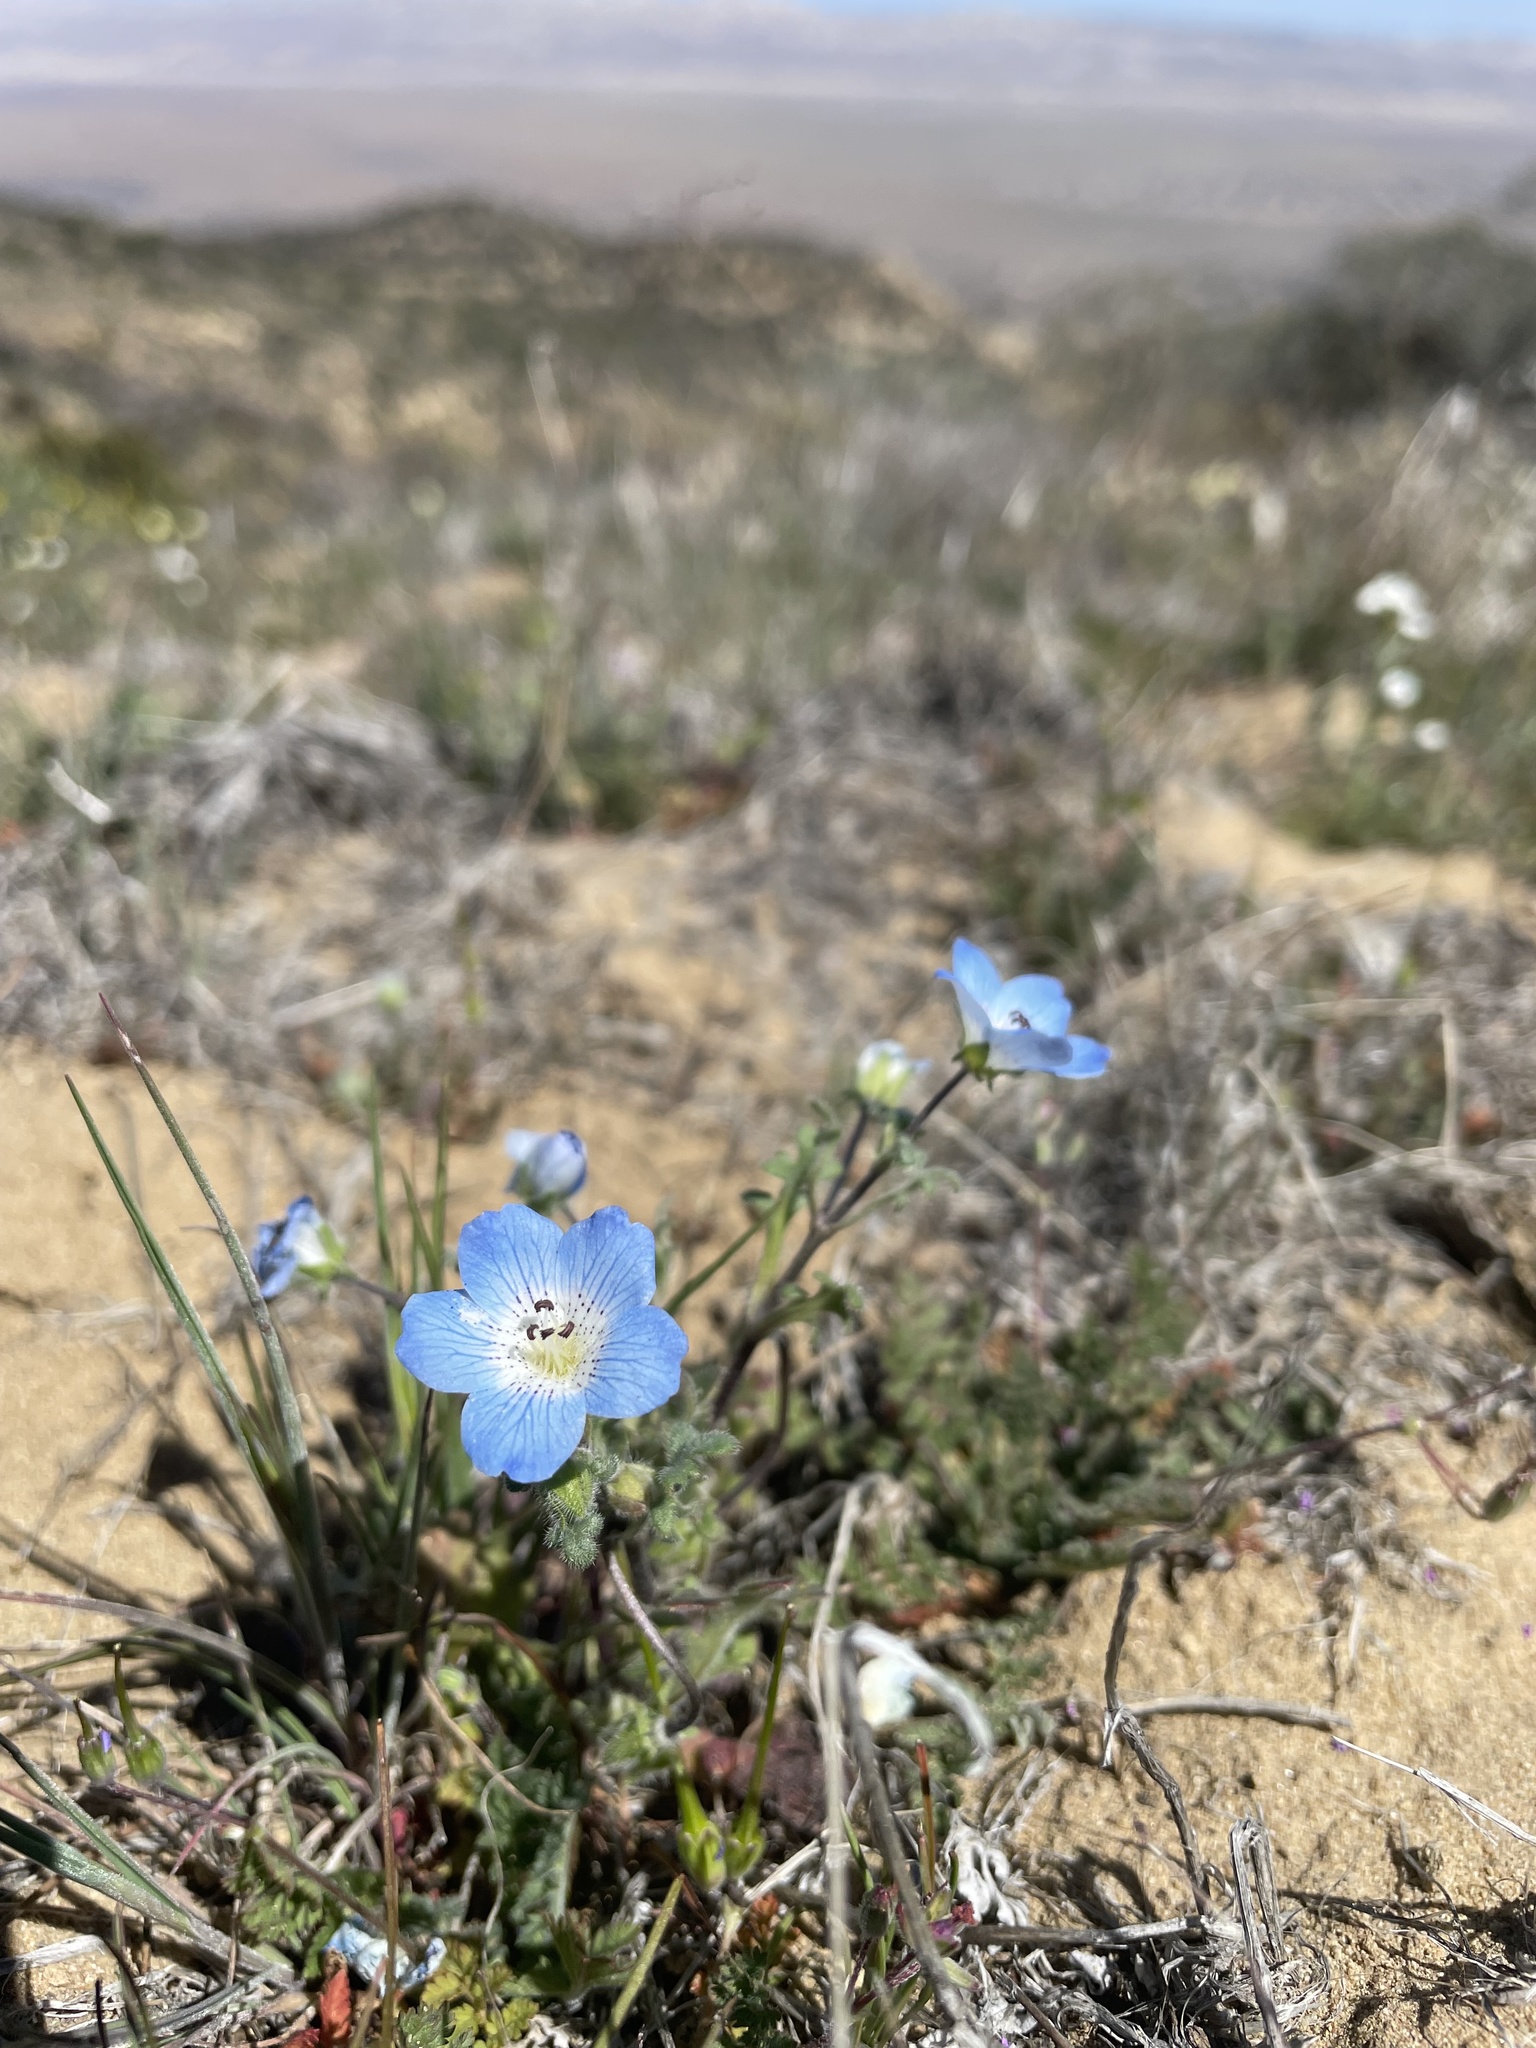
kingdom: Plantae
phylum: Tracheophyta
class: Magnoliopsida
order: Boraginales
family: Hydrophyllaceae
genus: Nemophila
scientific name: Nemophila menziesii
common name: Baby's-blue-eyes
